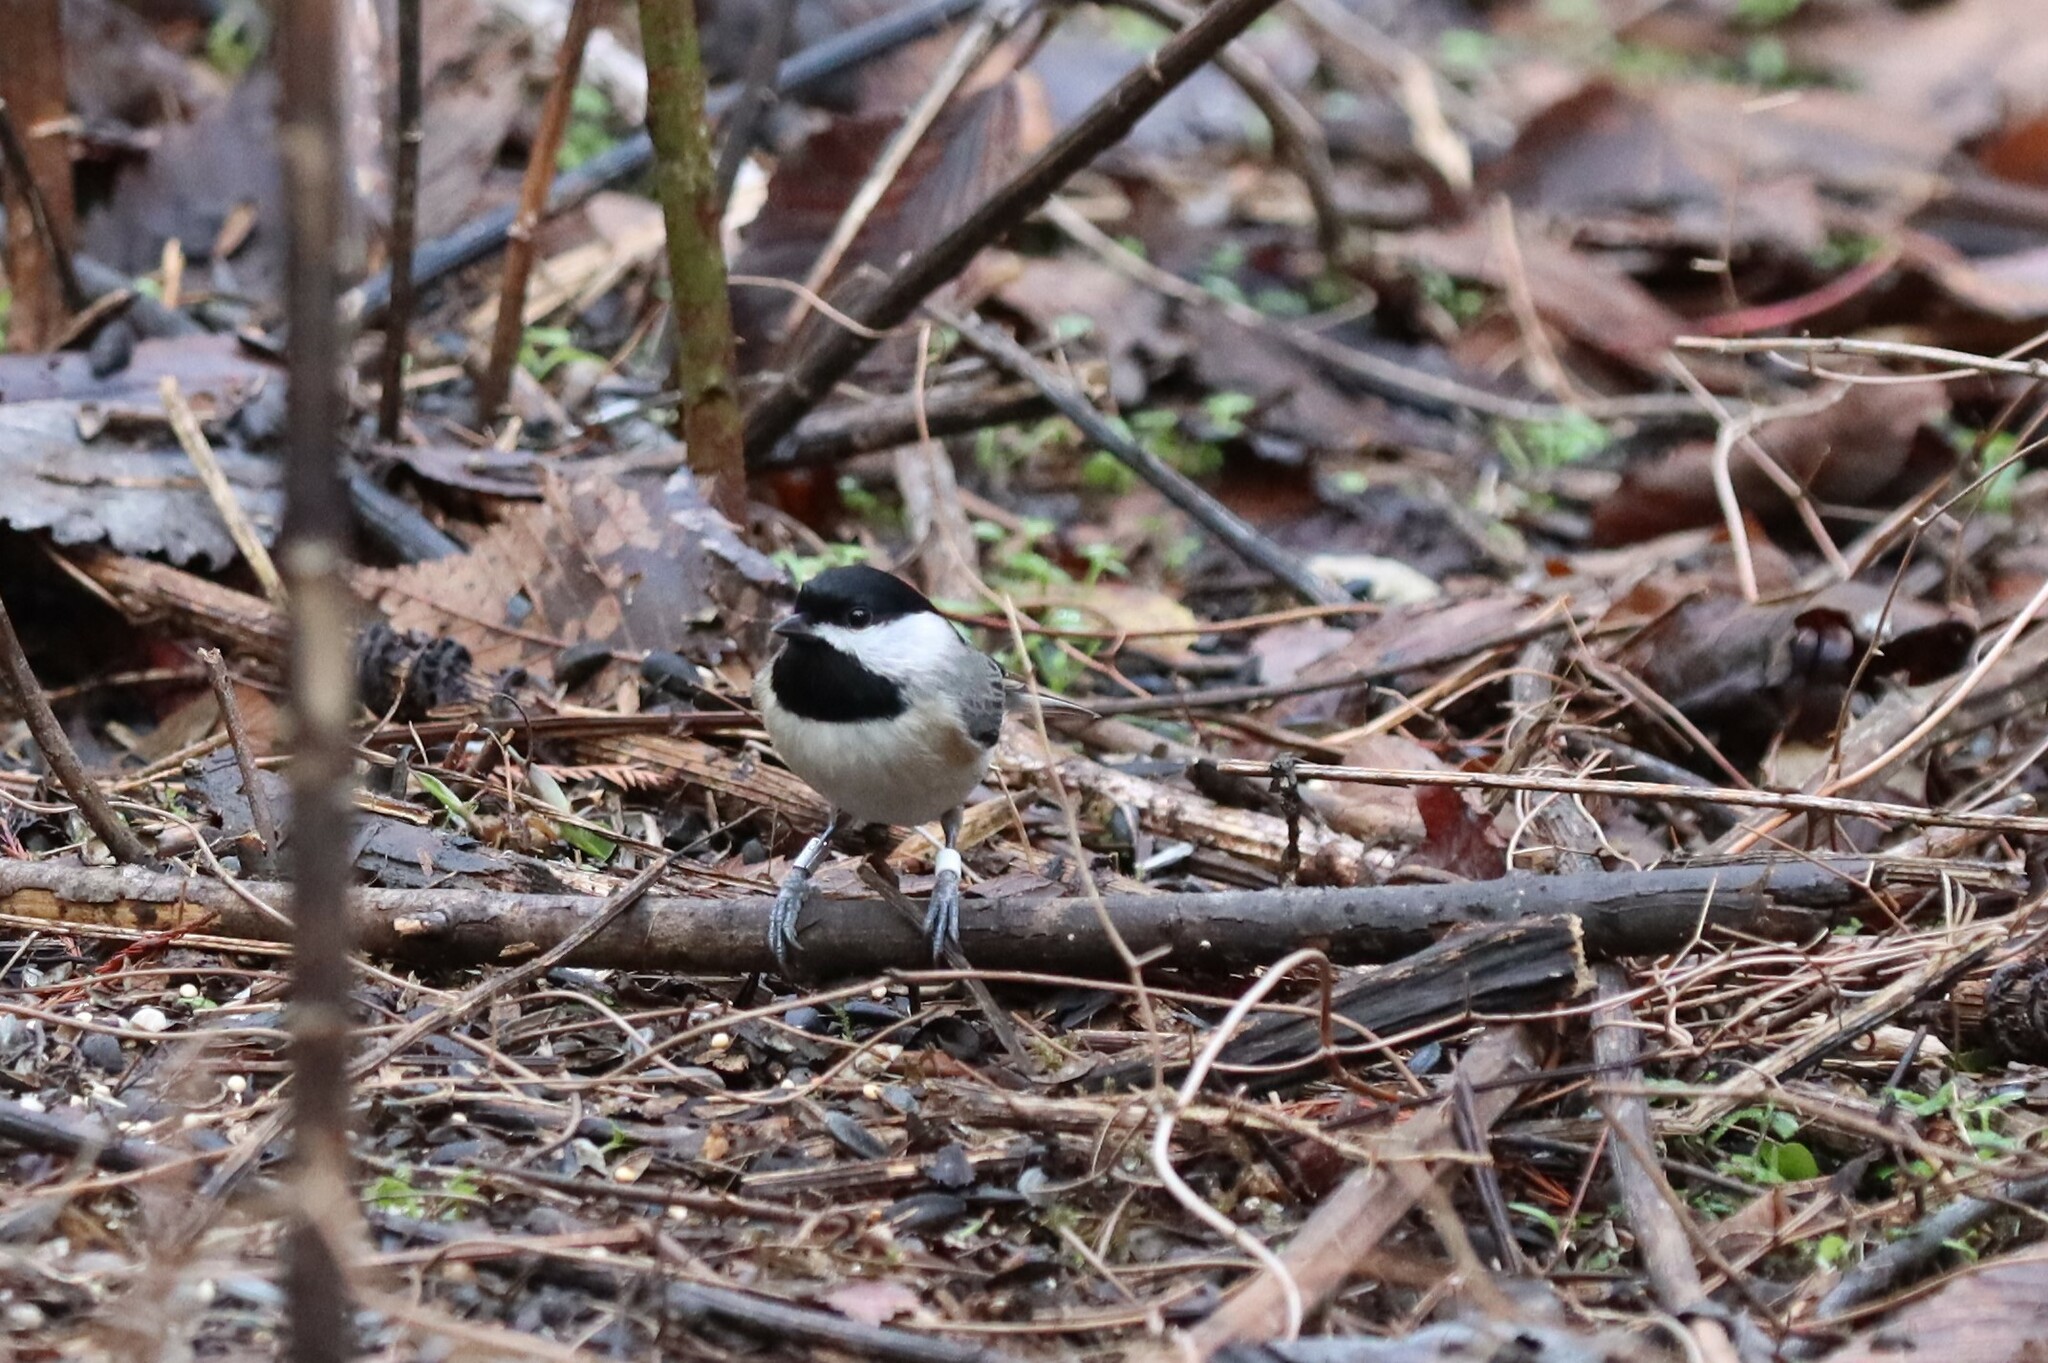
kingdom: Animalia
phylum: Chordata
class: Aves
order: Passeriformes
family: Paridae
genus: Poecile
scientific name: Poecile carolinensis
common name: Carolina chickadee
